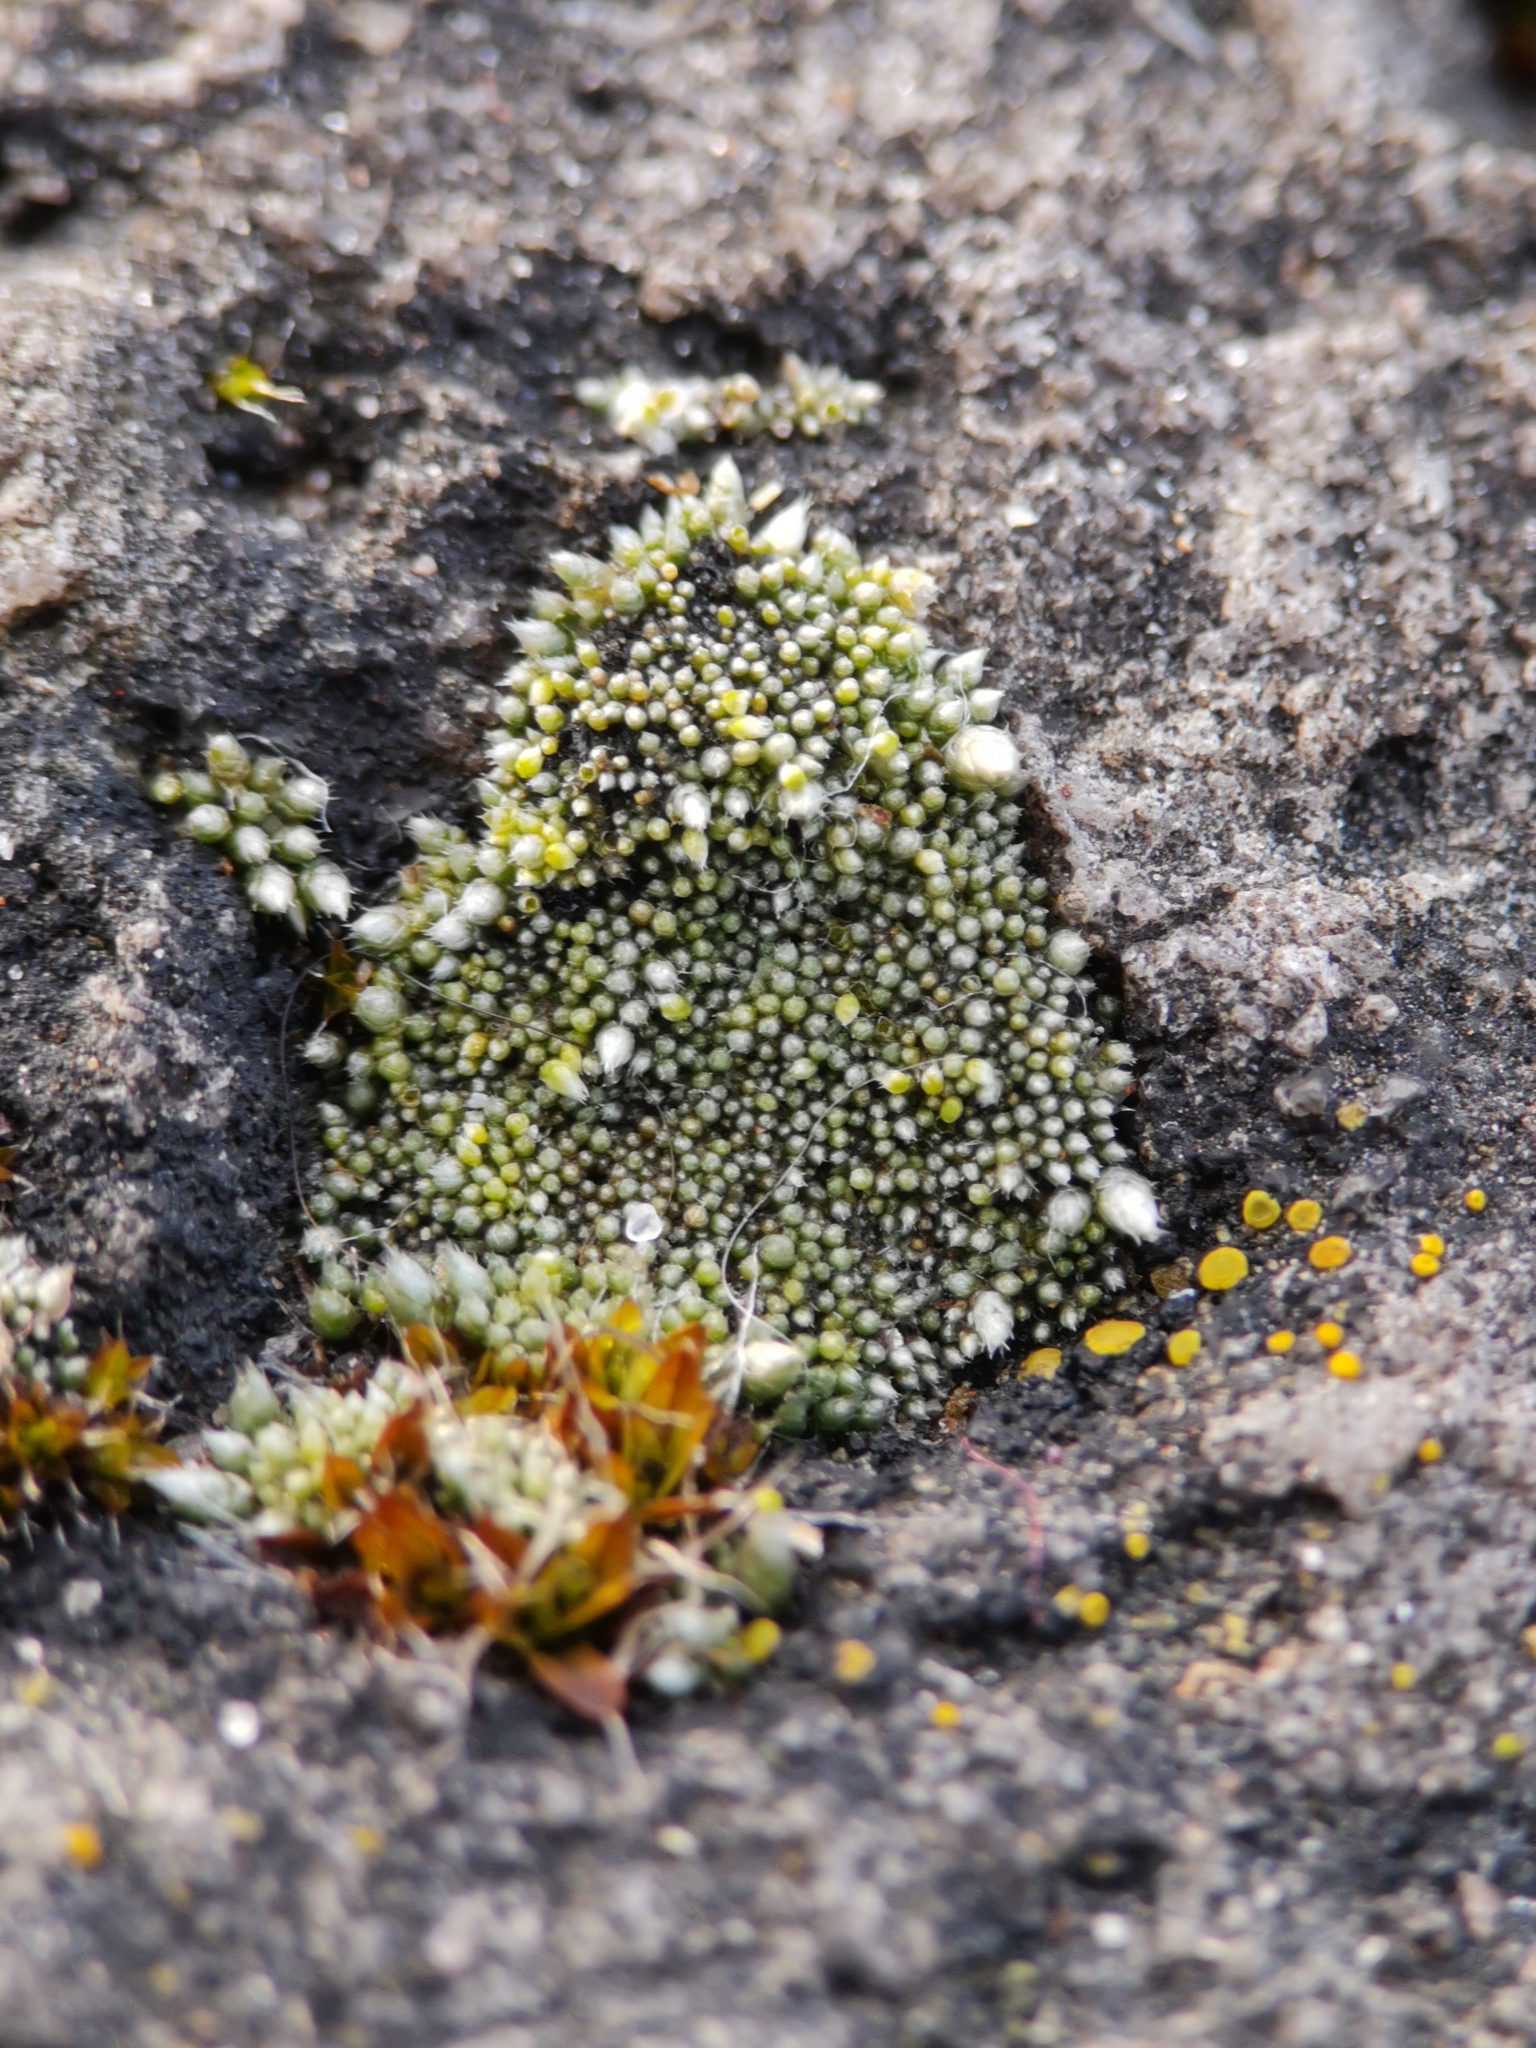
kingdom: Plantae
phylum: Bryophyta
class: Bryopsida
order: Bryales
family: Bryaceae
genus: Bryum
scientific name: Bryum argenteum
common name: Silver-moss
